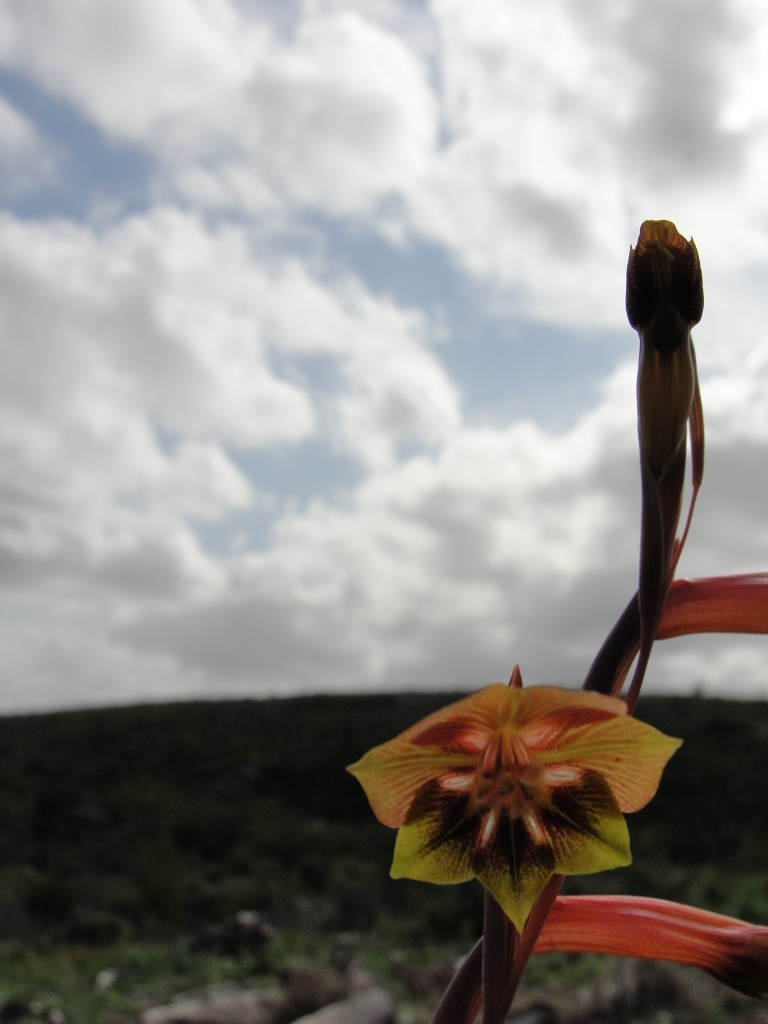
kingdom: Plantae
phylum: Tracheophyta
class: Liliopsida
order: Asparagales
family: Iridaceae
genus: Gladiolus
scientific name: Gladiolus fourcadei
